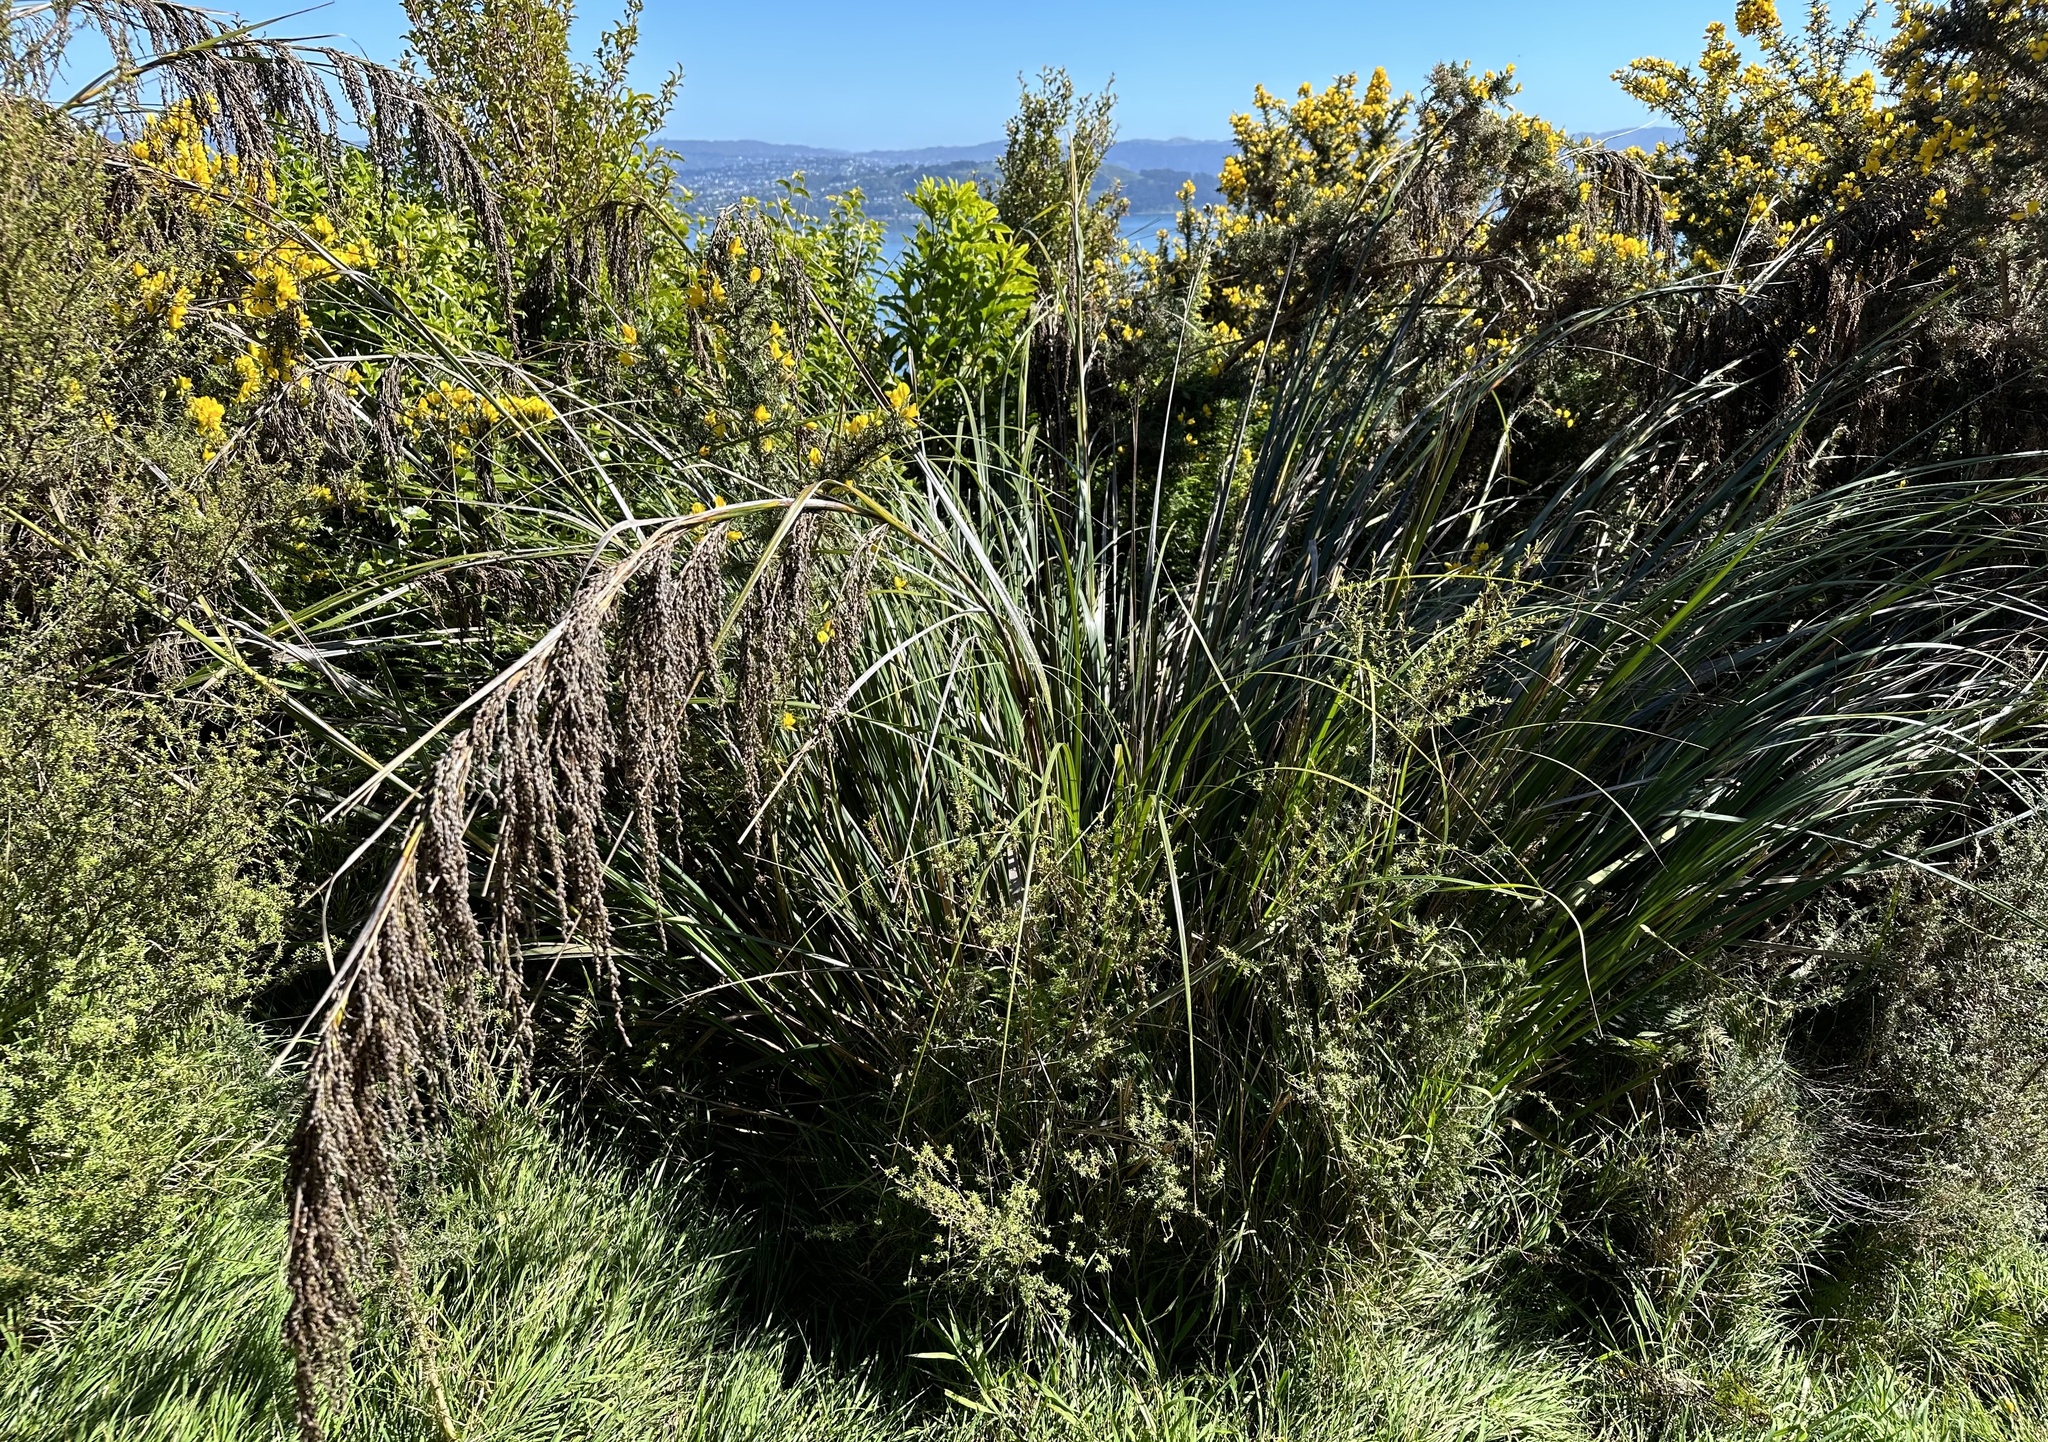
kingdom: Plantae
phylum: Tracheophyta
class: Liliopsida
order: Poales
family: Cyperaceae
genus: Gahnia
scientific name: Gahnia setifolia
